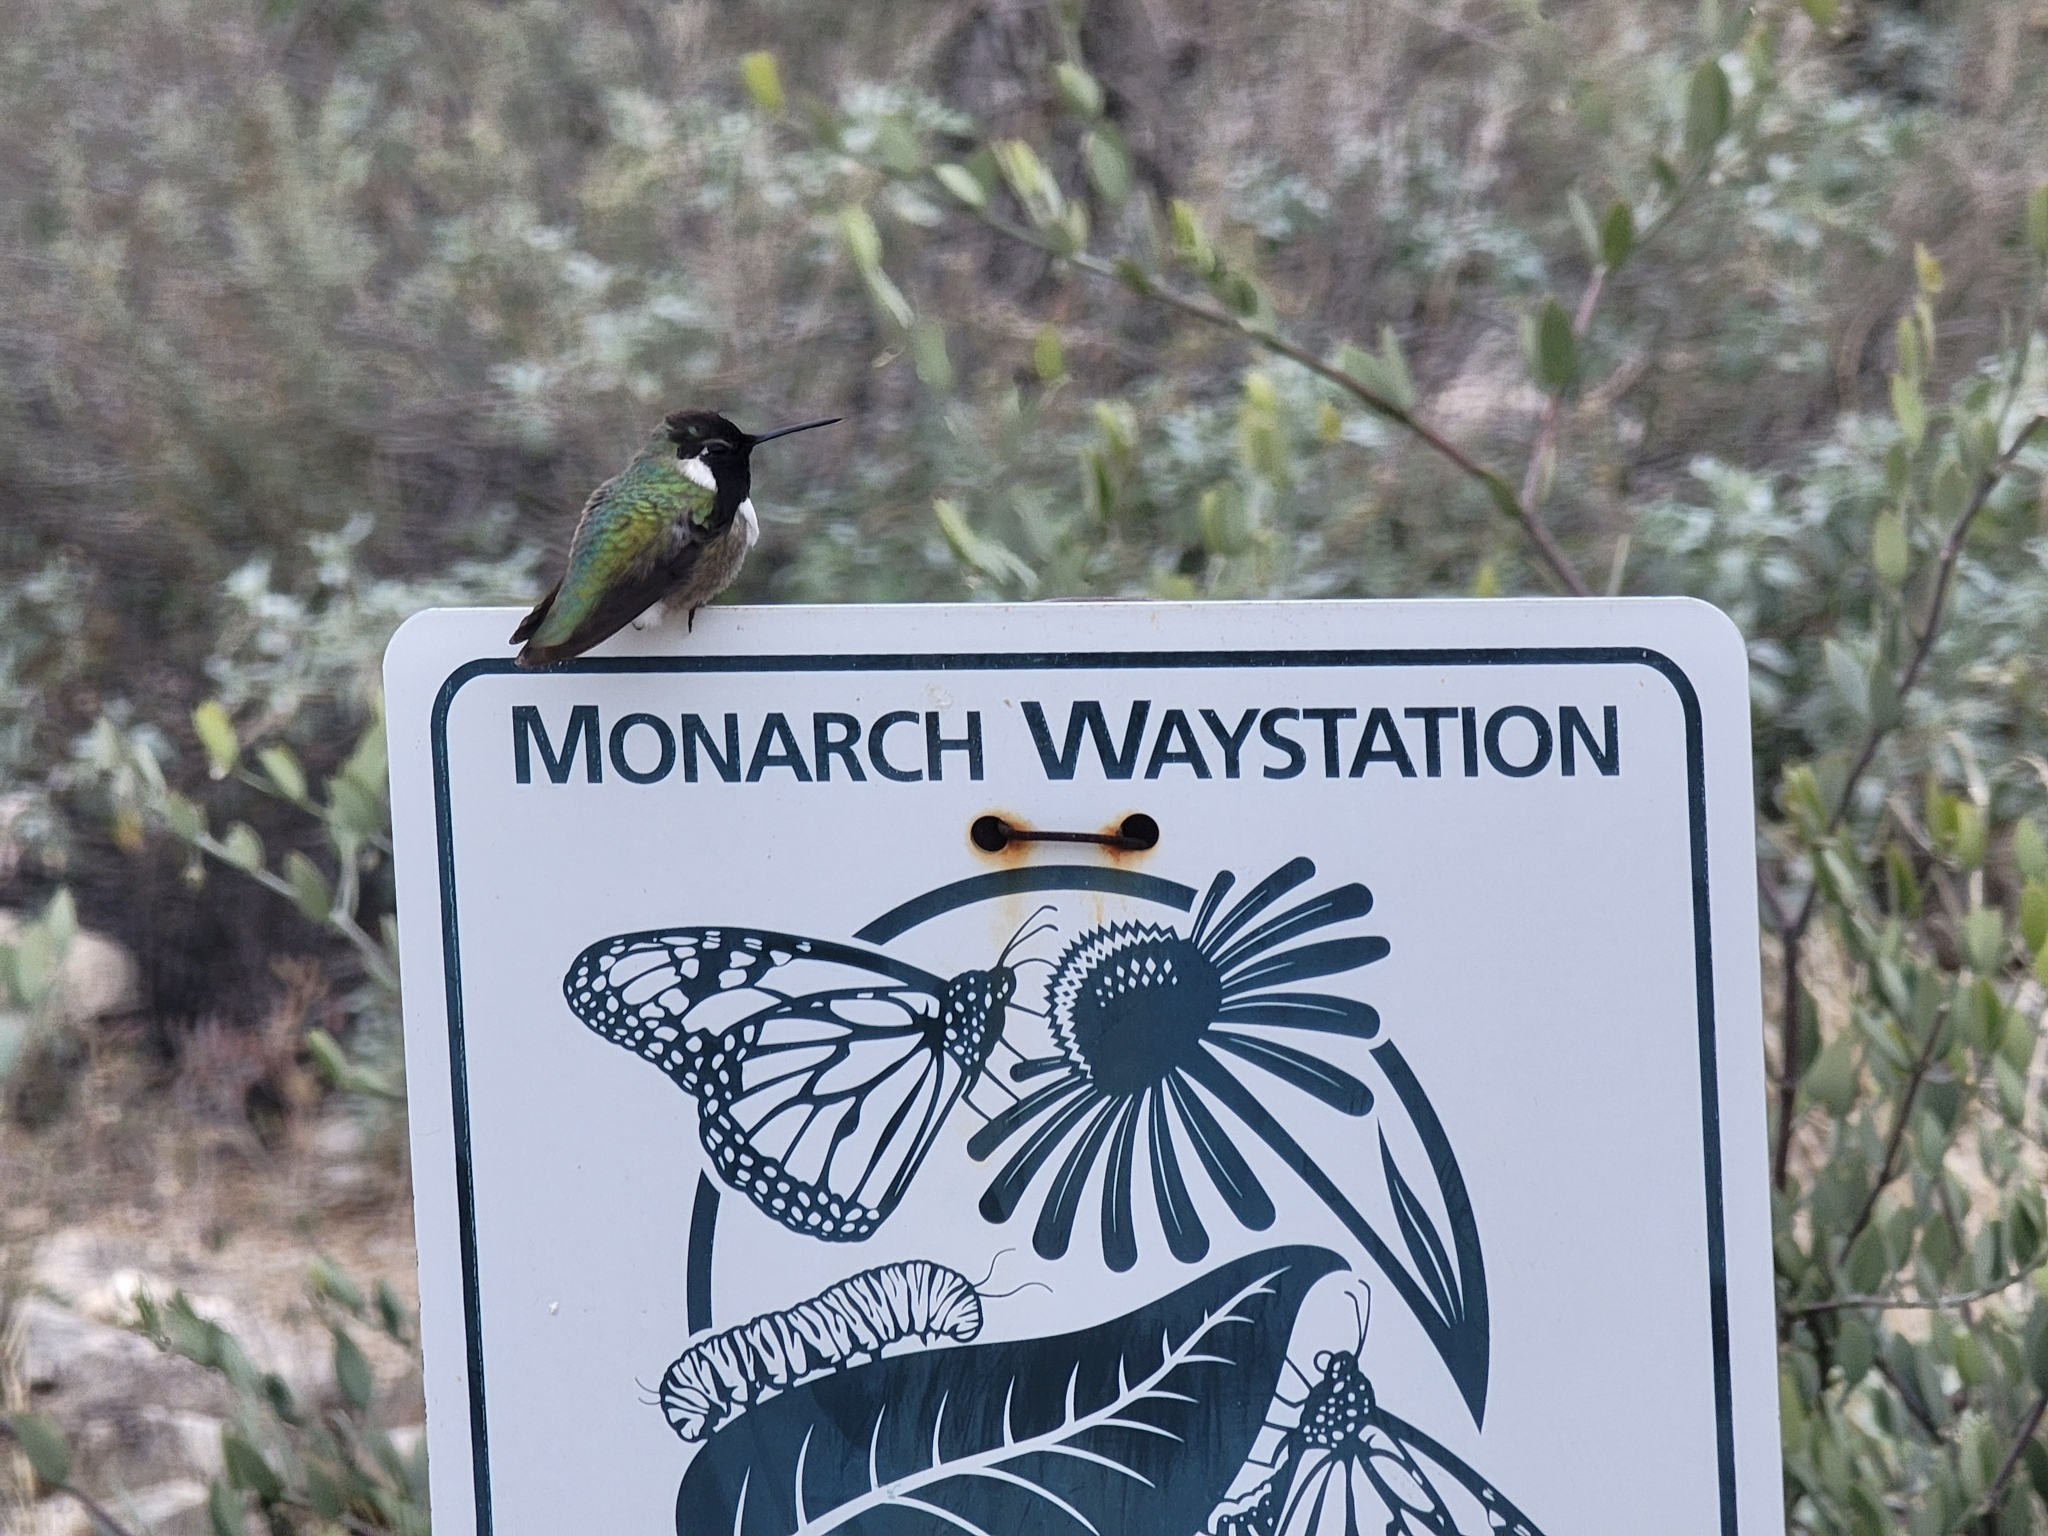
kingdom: Animalia
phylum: Chordata
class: Aves
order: Apodiformes
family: Trochilidae
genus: Calypte
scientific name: Calypte costae
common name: Costa's hummingbird
